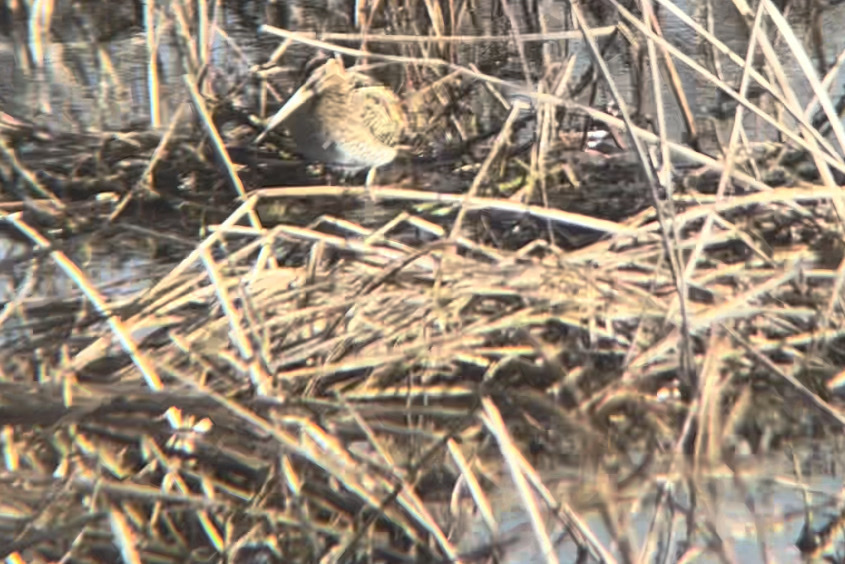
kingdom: Animalia
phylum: Chordata
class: Aves
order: Charadriiformes
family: Scolopacidae
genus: Gallinago
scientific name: Gallinago gallinago
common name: Common snipe
